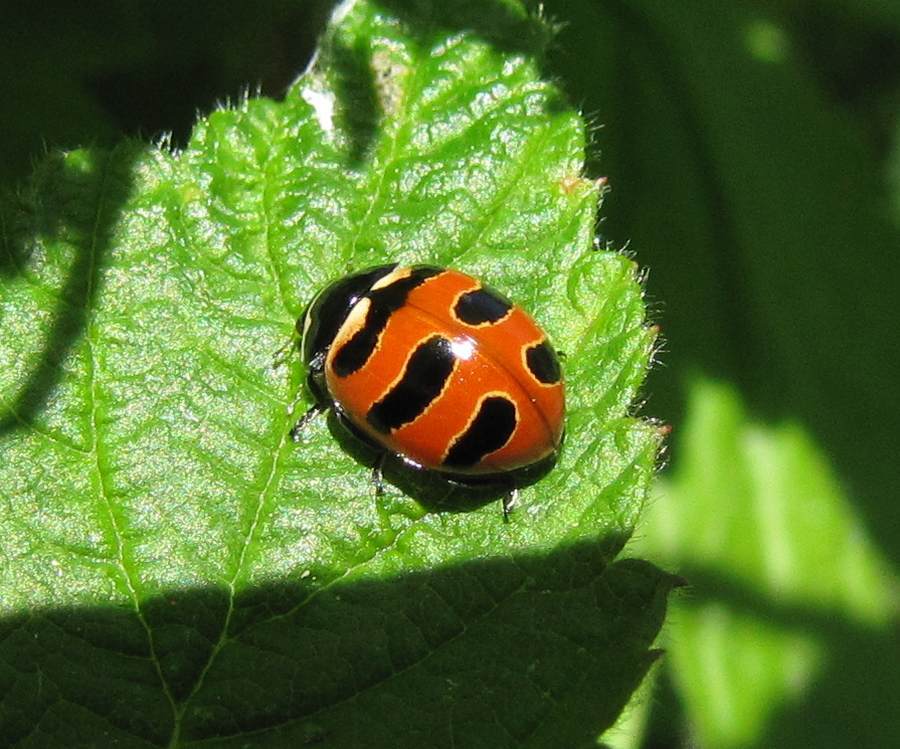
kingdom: Animalia
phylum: Arthropoda
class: Insecta
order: Coleoptera
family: Coccinellidae
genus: Coccinella
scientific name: Coccinella trifasciata
